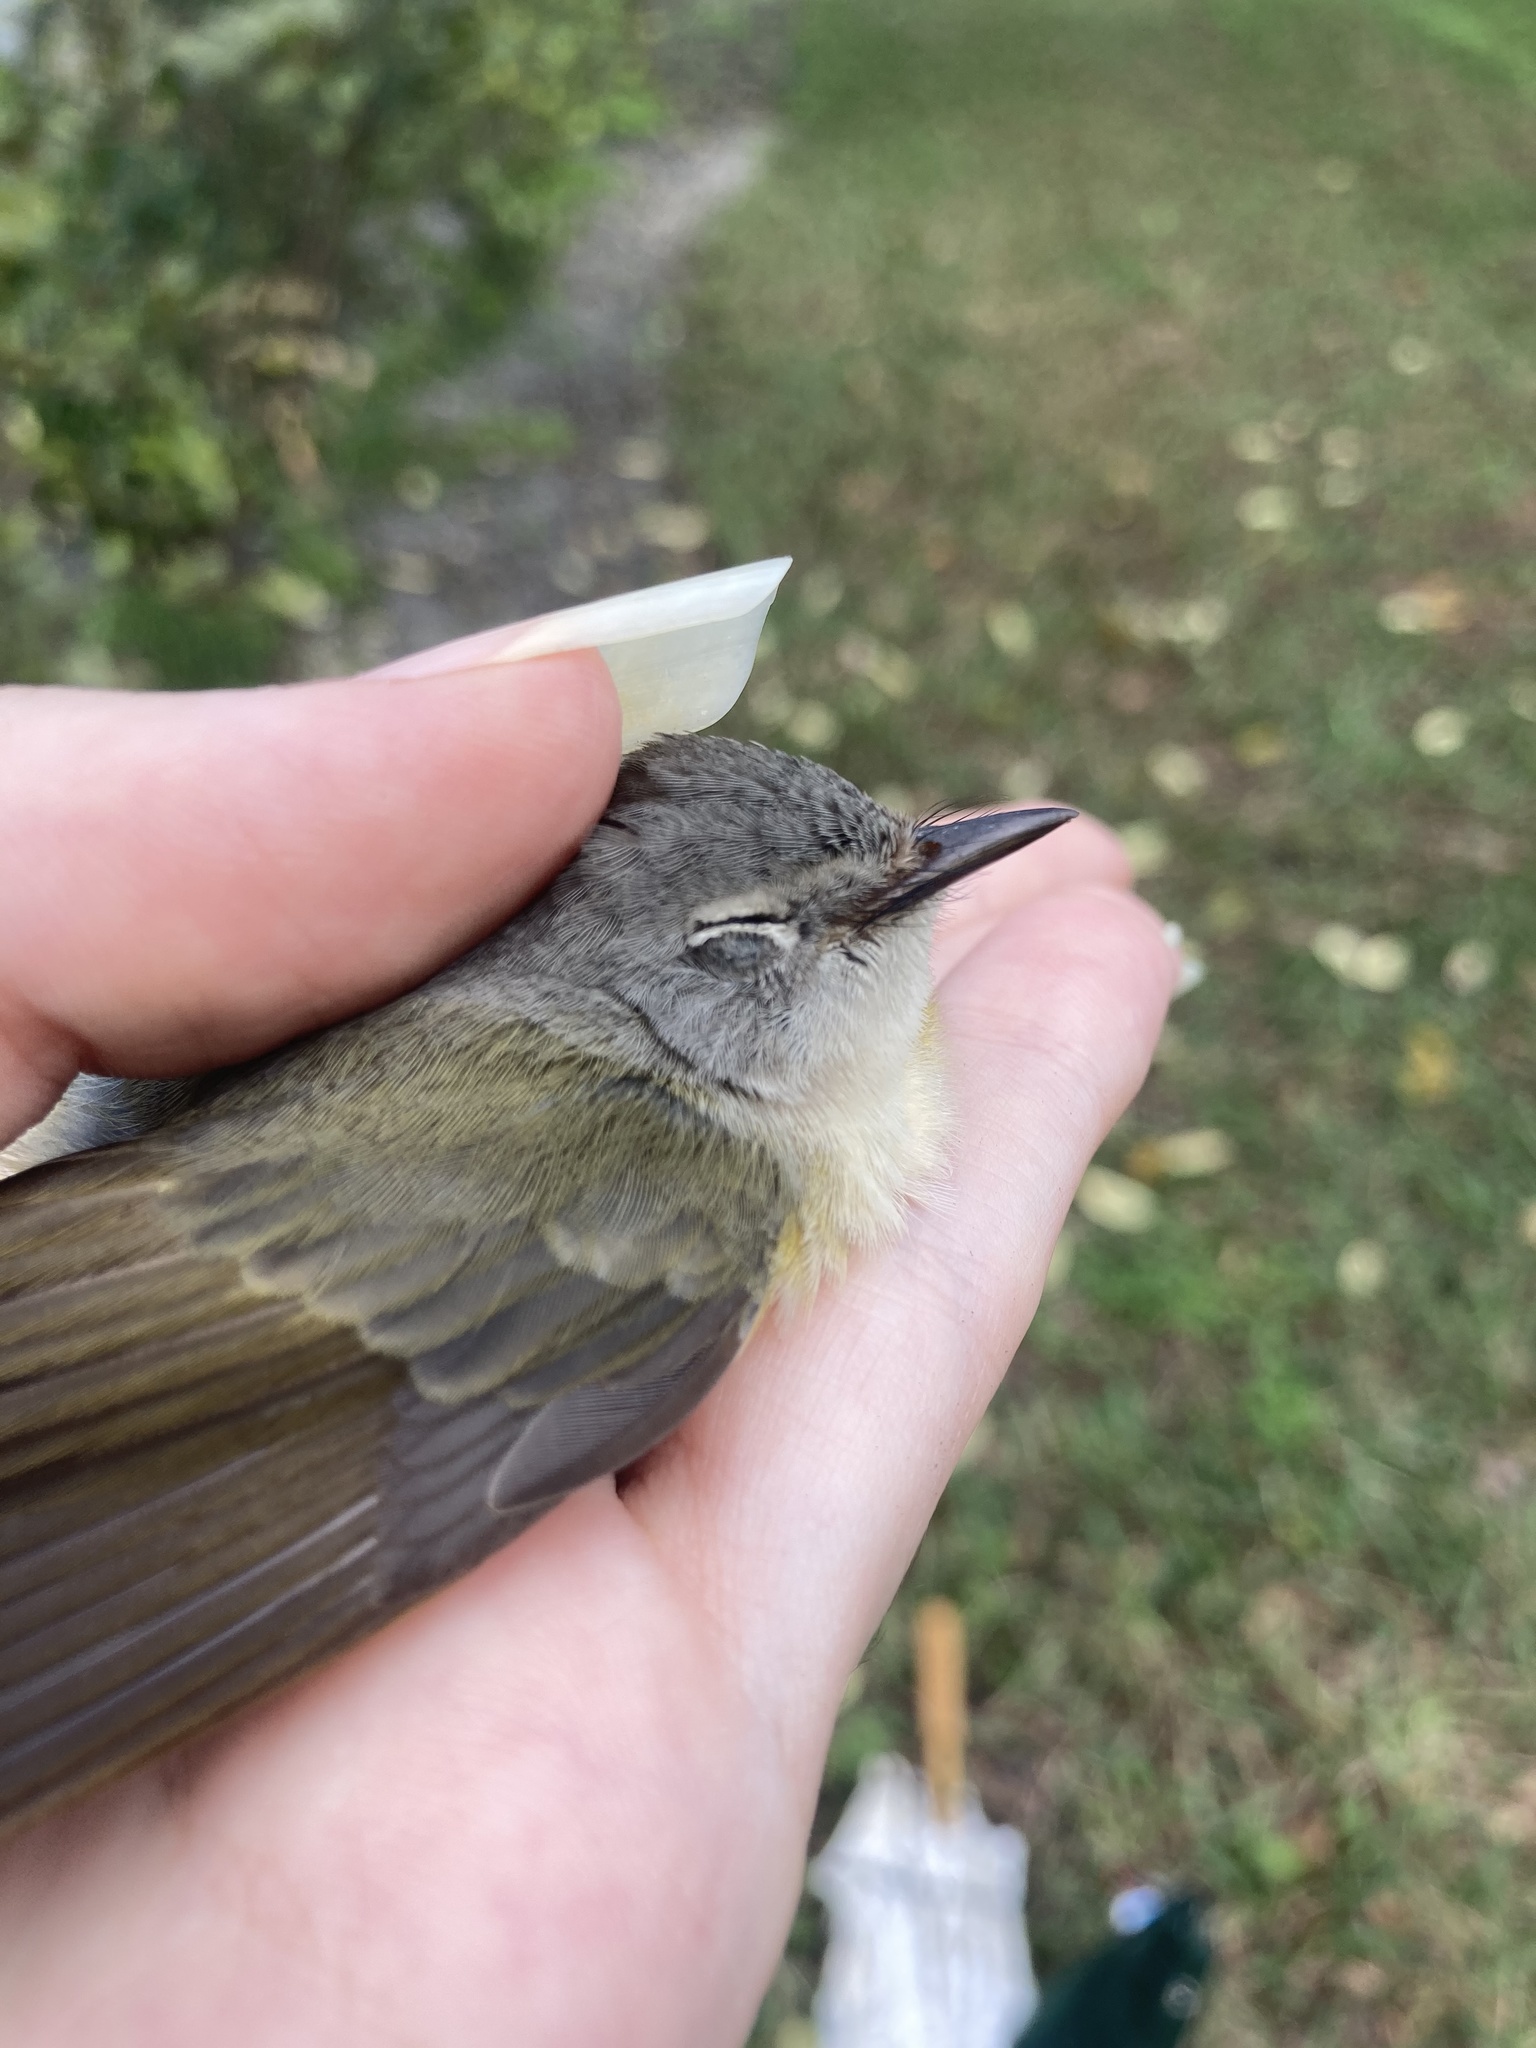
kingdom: Animalia
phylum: Chordata
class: Aves
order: Passeriformes
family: Parulidae
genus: Setophaga
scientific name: Setophaga ruticilla
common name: American redstart
